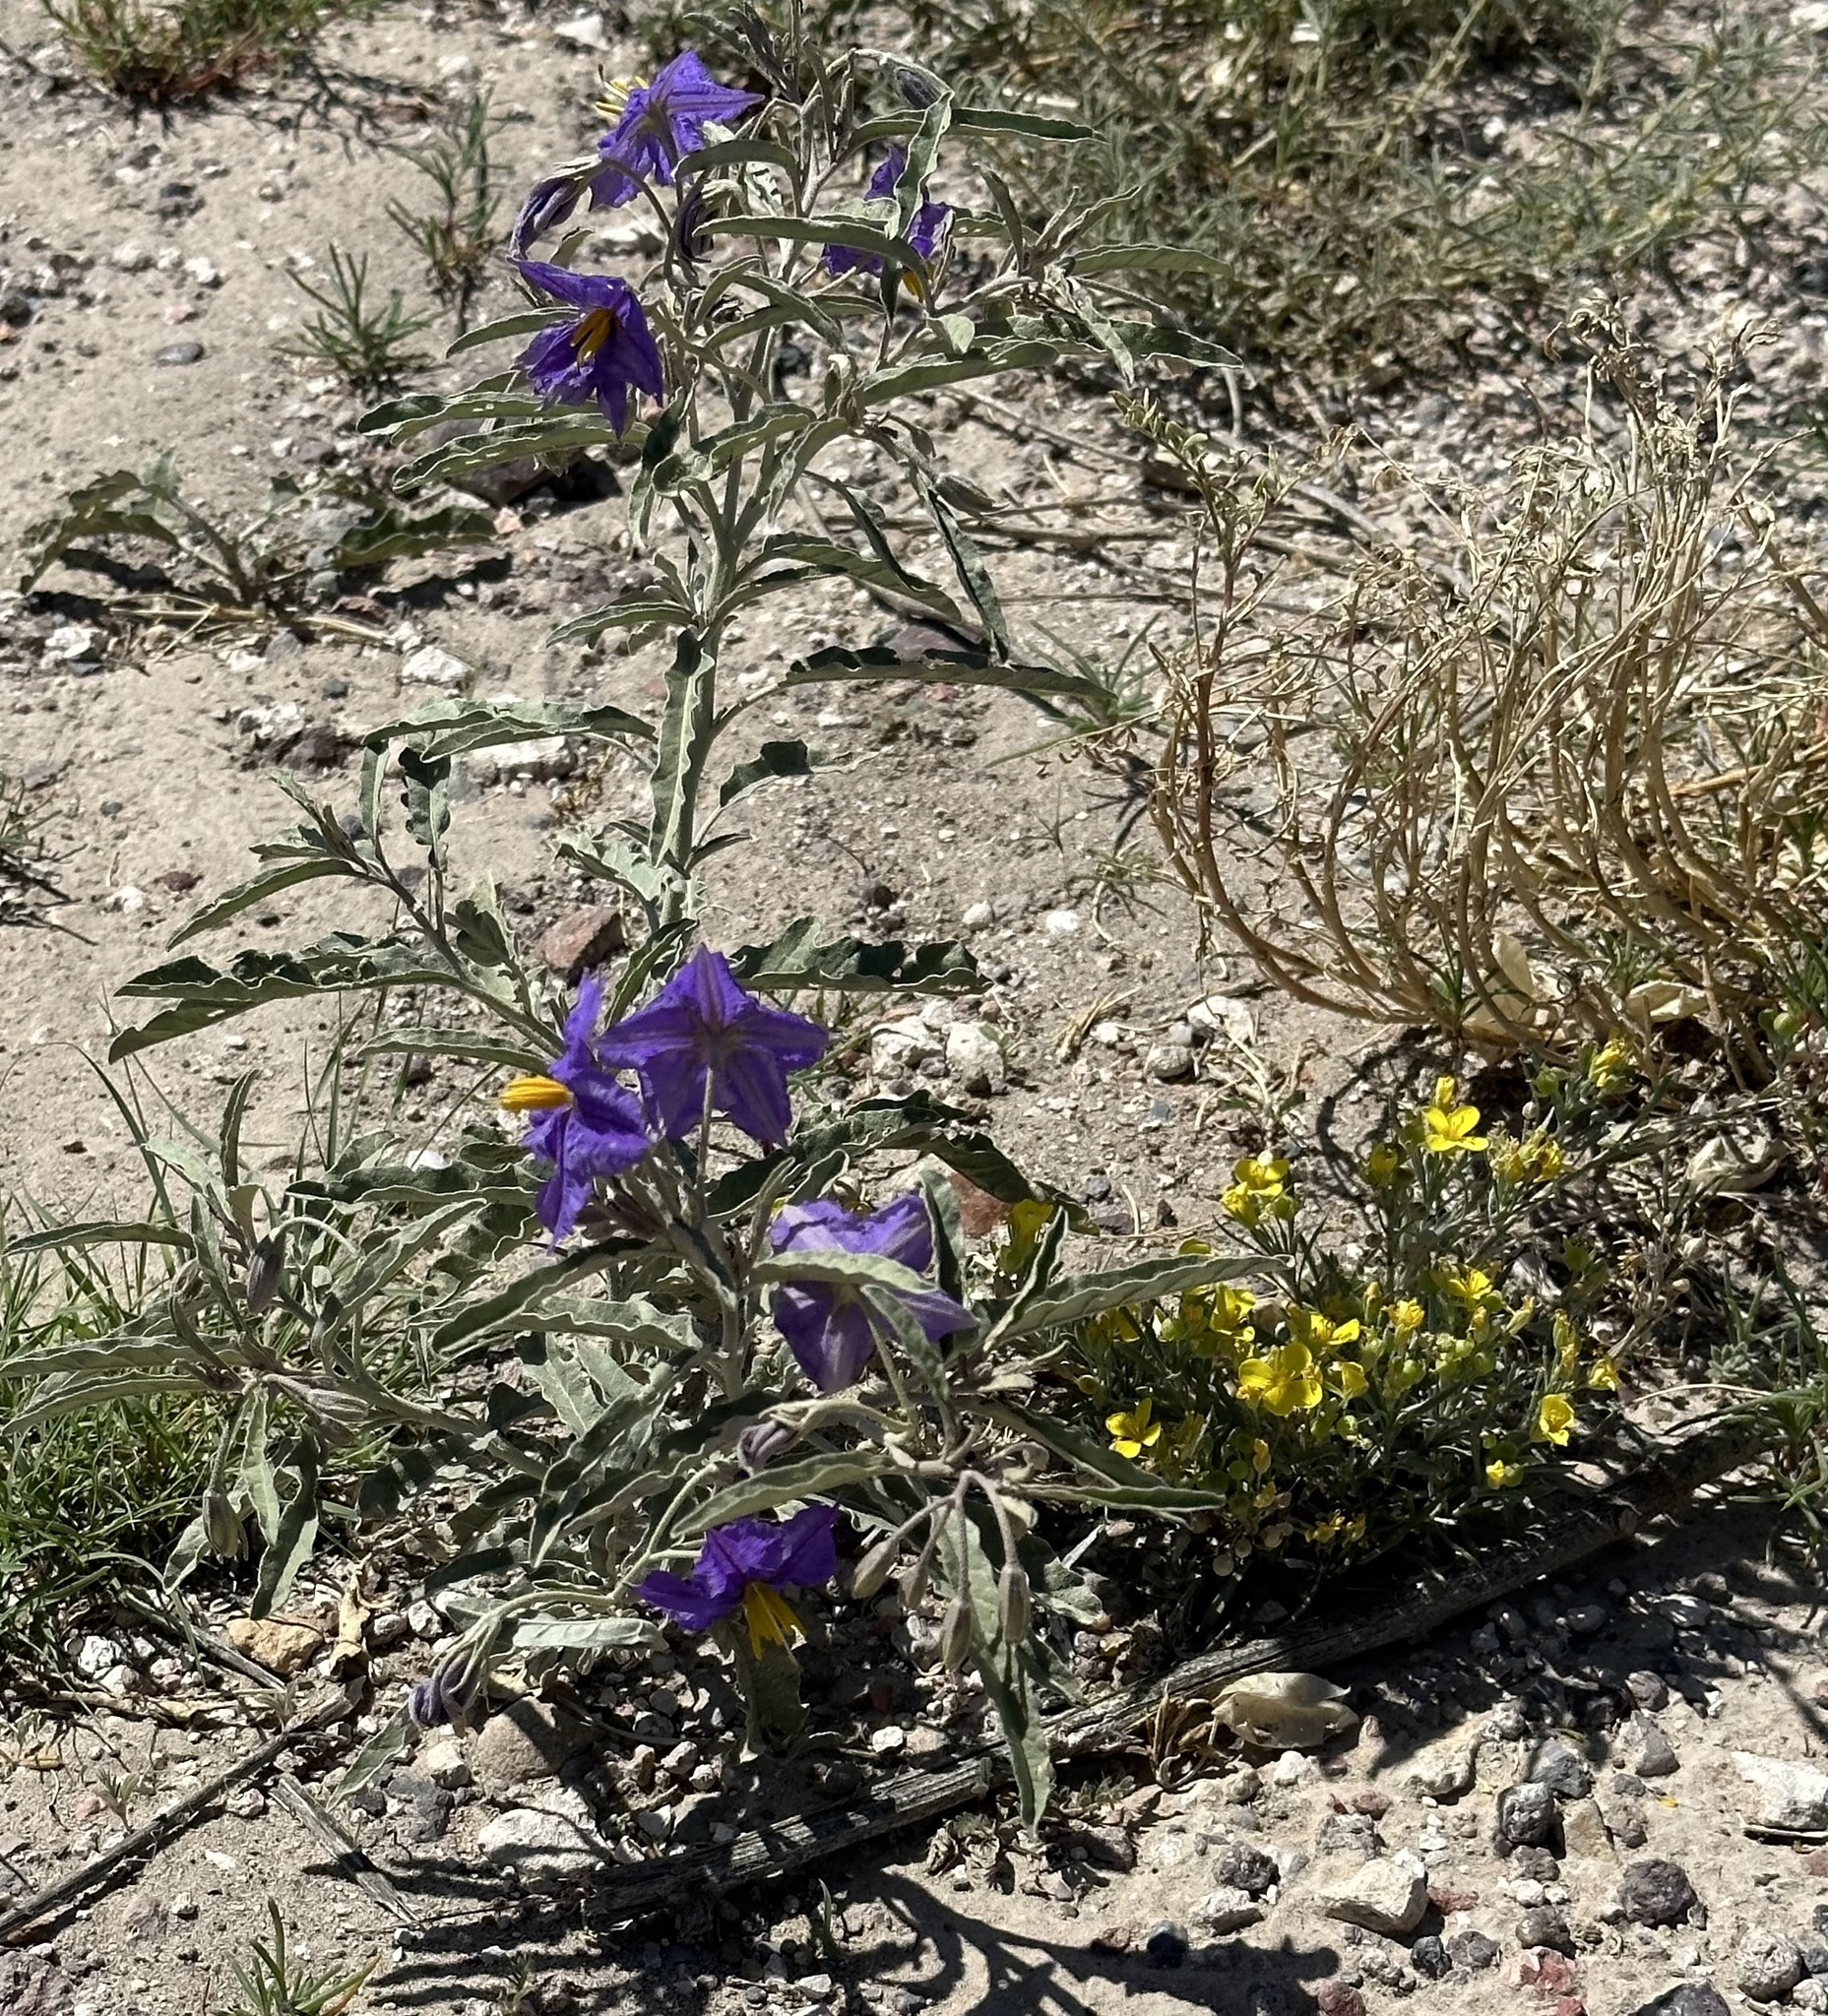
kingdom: Plantae
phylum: Tracheophyta
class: Magnoliopsida
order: Solanales
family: Solanaceae
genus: Solanum
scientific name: Solanum elaeagnifolium
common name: Silverleaf nightshade
